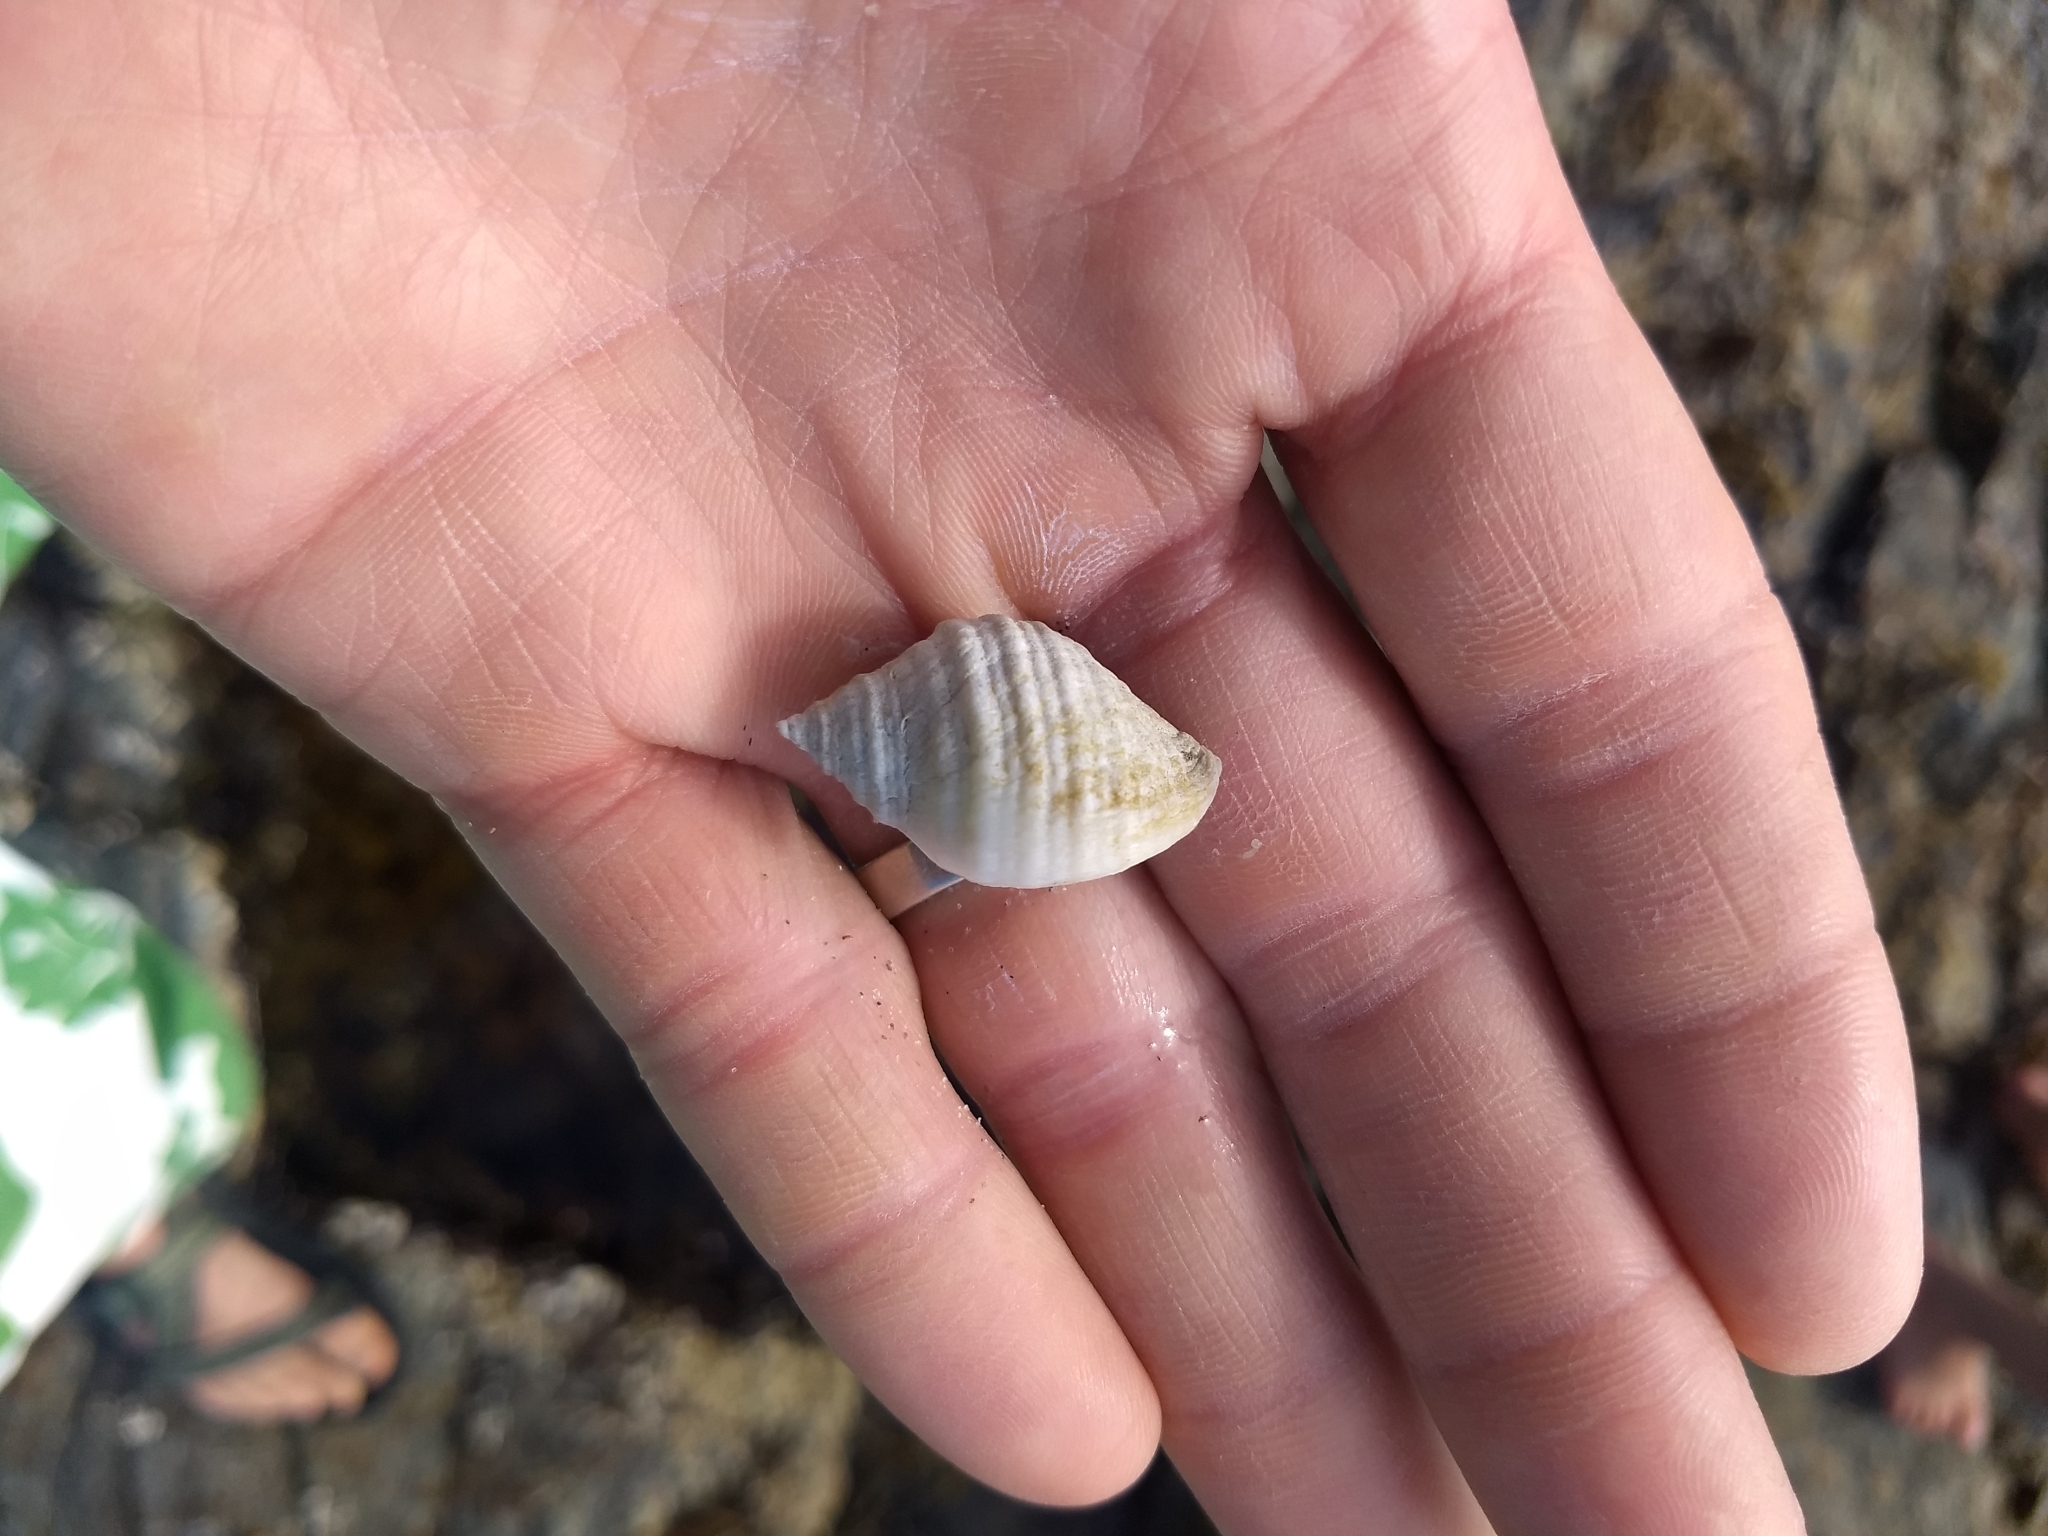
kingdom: Animalia
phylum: Mollusca
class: Gastropoda
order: Neogastropoda
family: Muricidae
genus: Nucella
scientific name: Nucella lapillus
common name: Dog whelk
